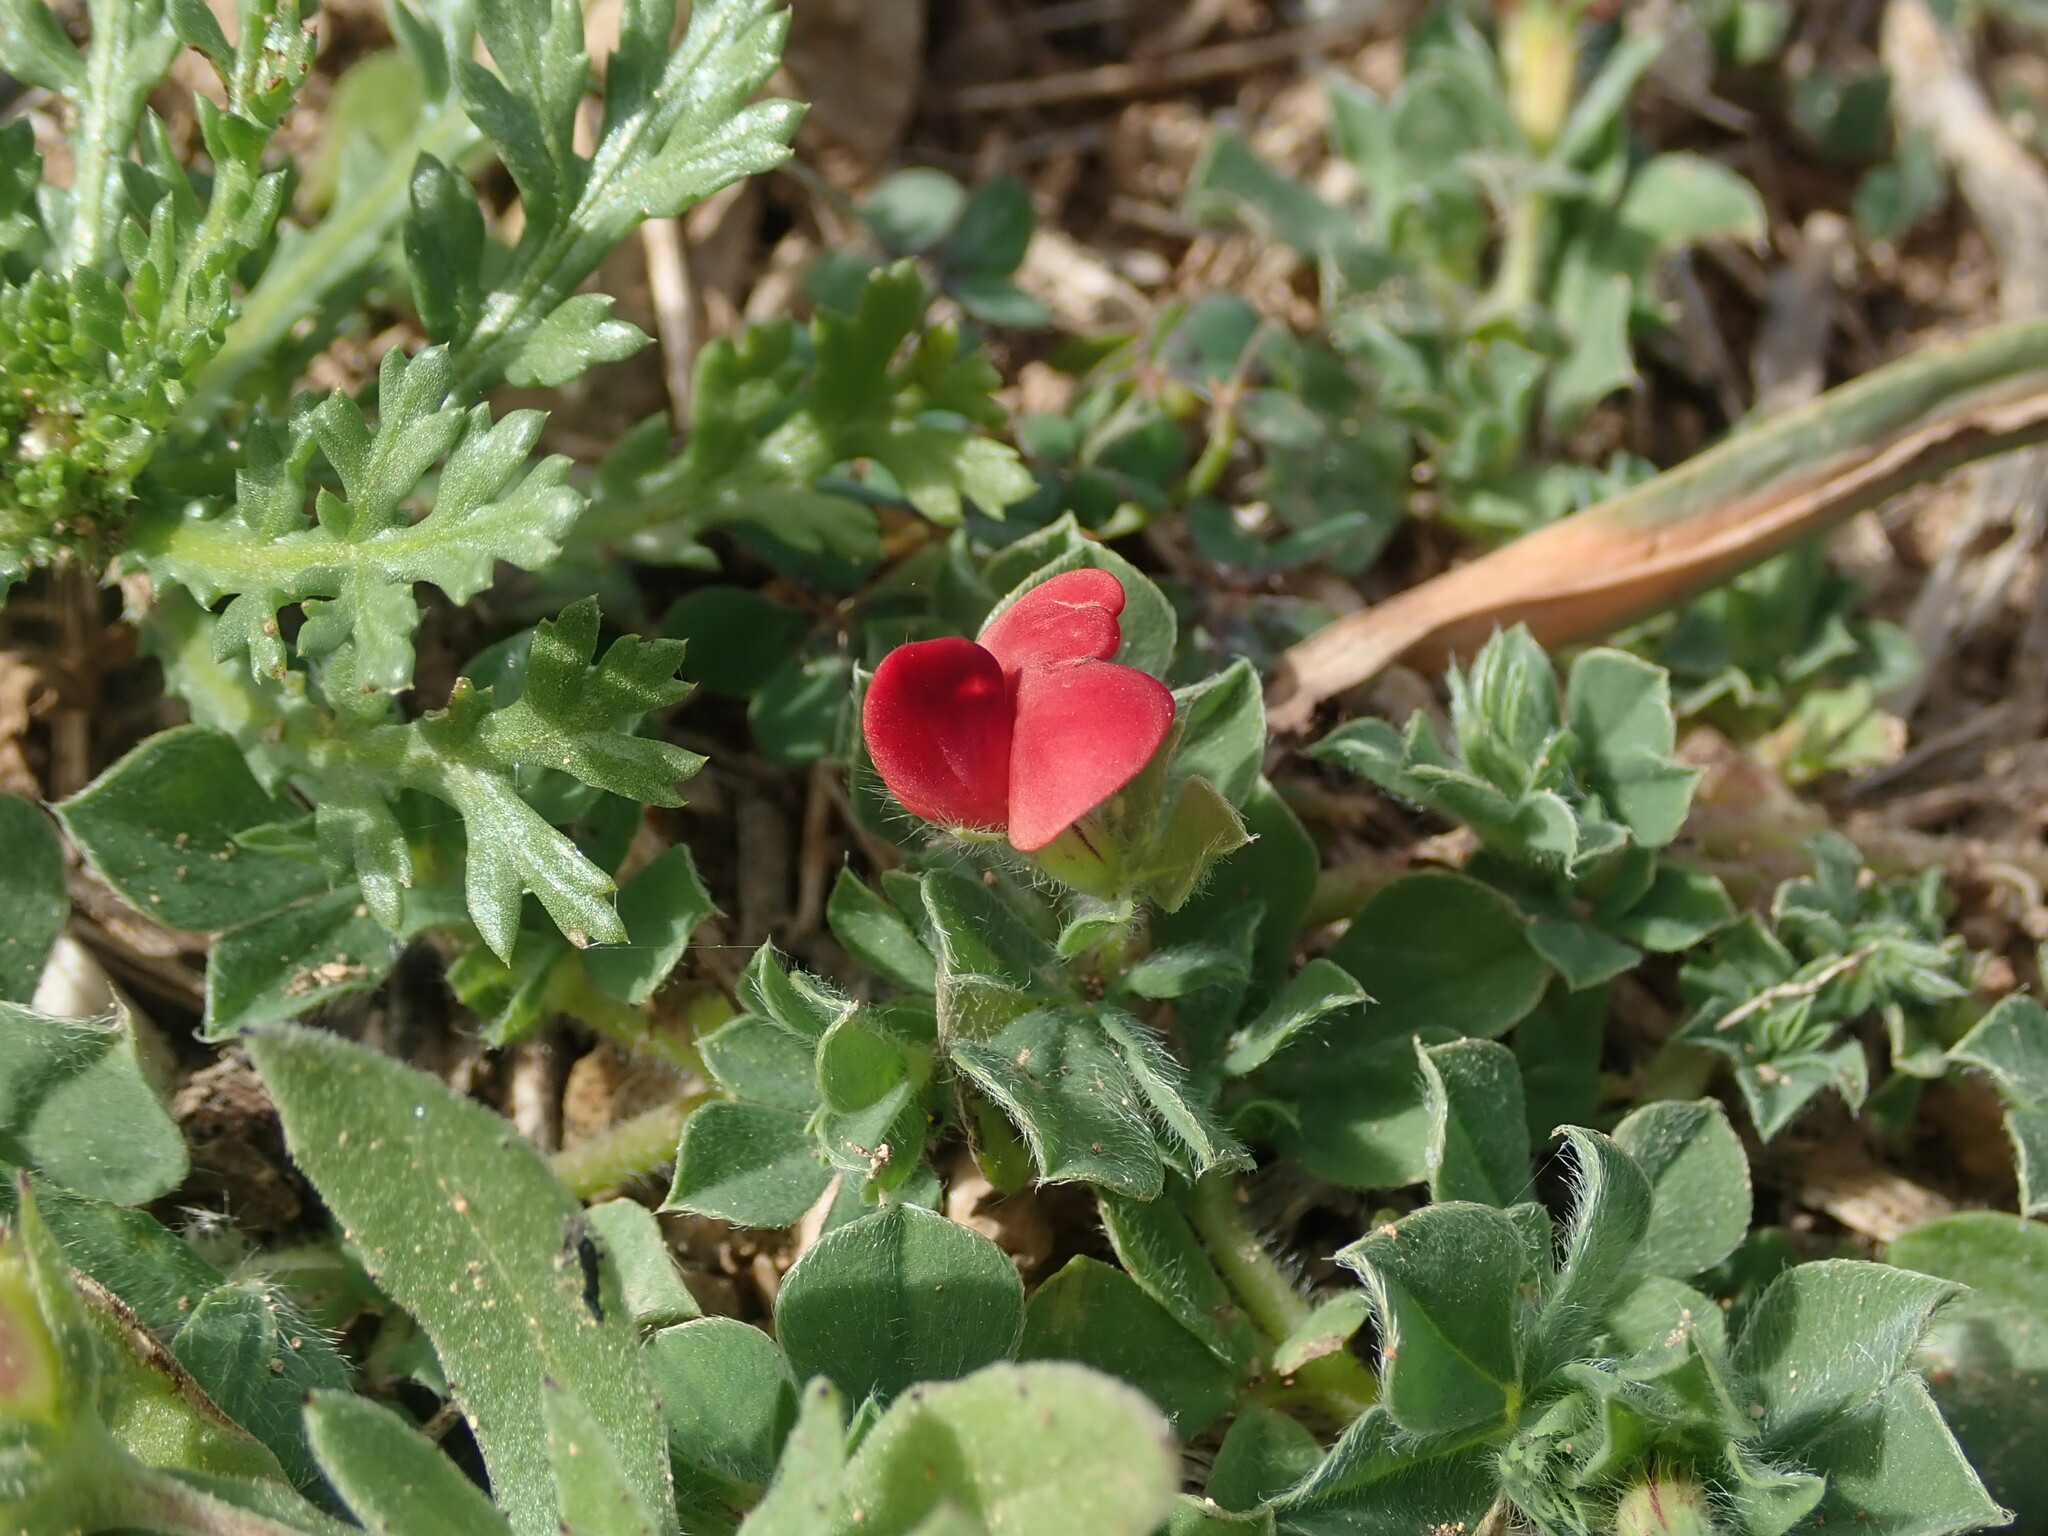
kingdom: Plantae
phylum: Tracheophyta
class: Magnoliopsida
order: Fabales
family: Fabaceae
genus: Lotus
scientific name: Lotus tetragonolobus
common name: Asparagus-pea
